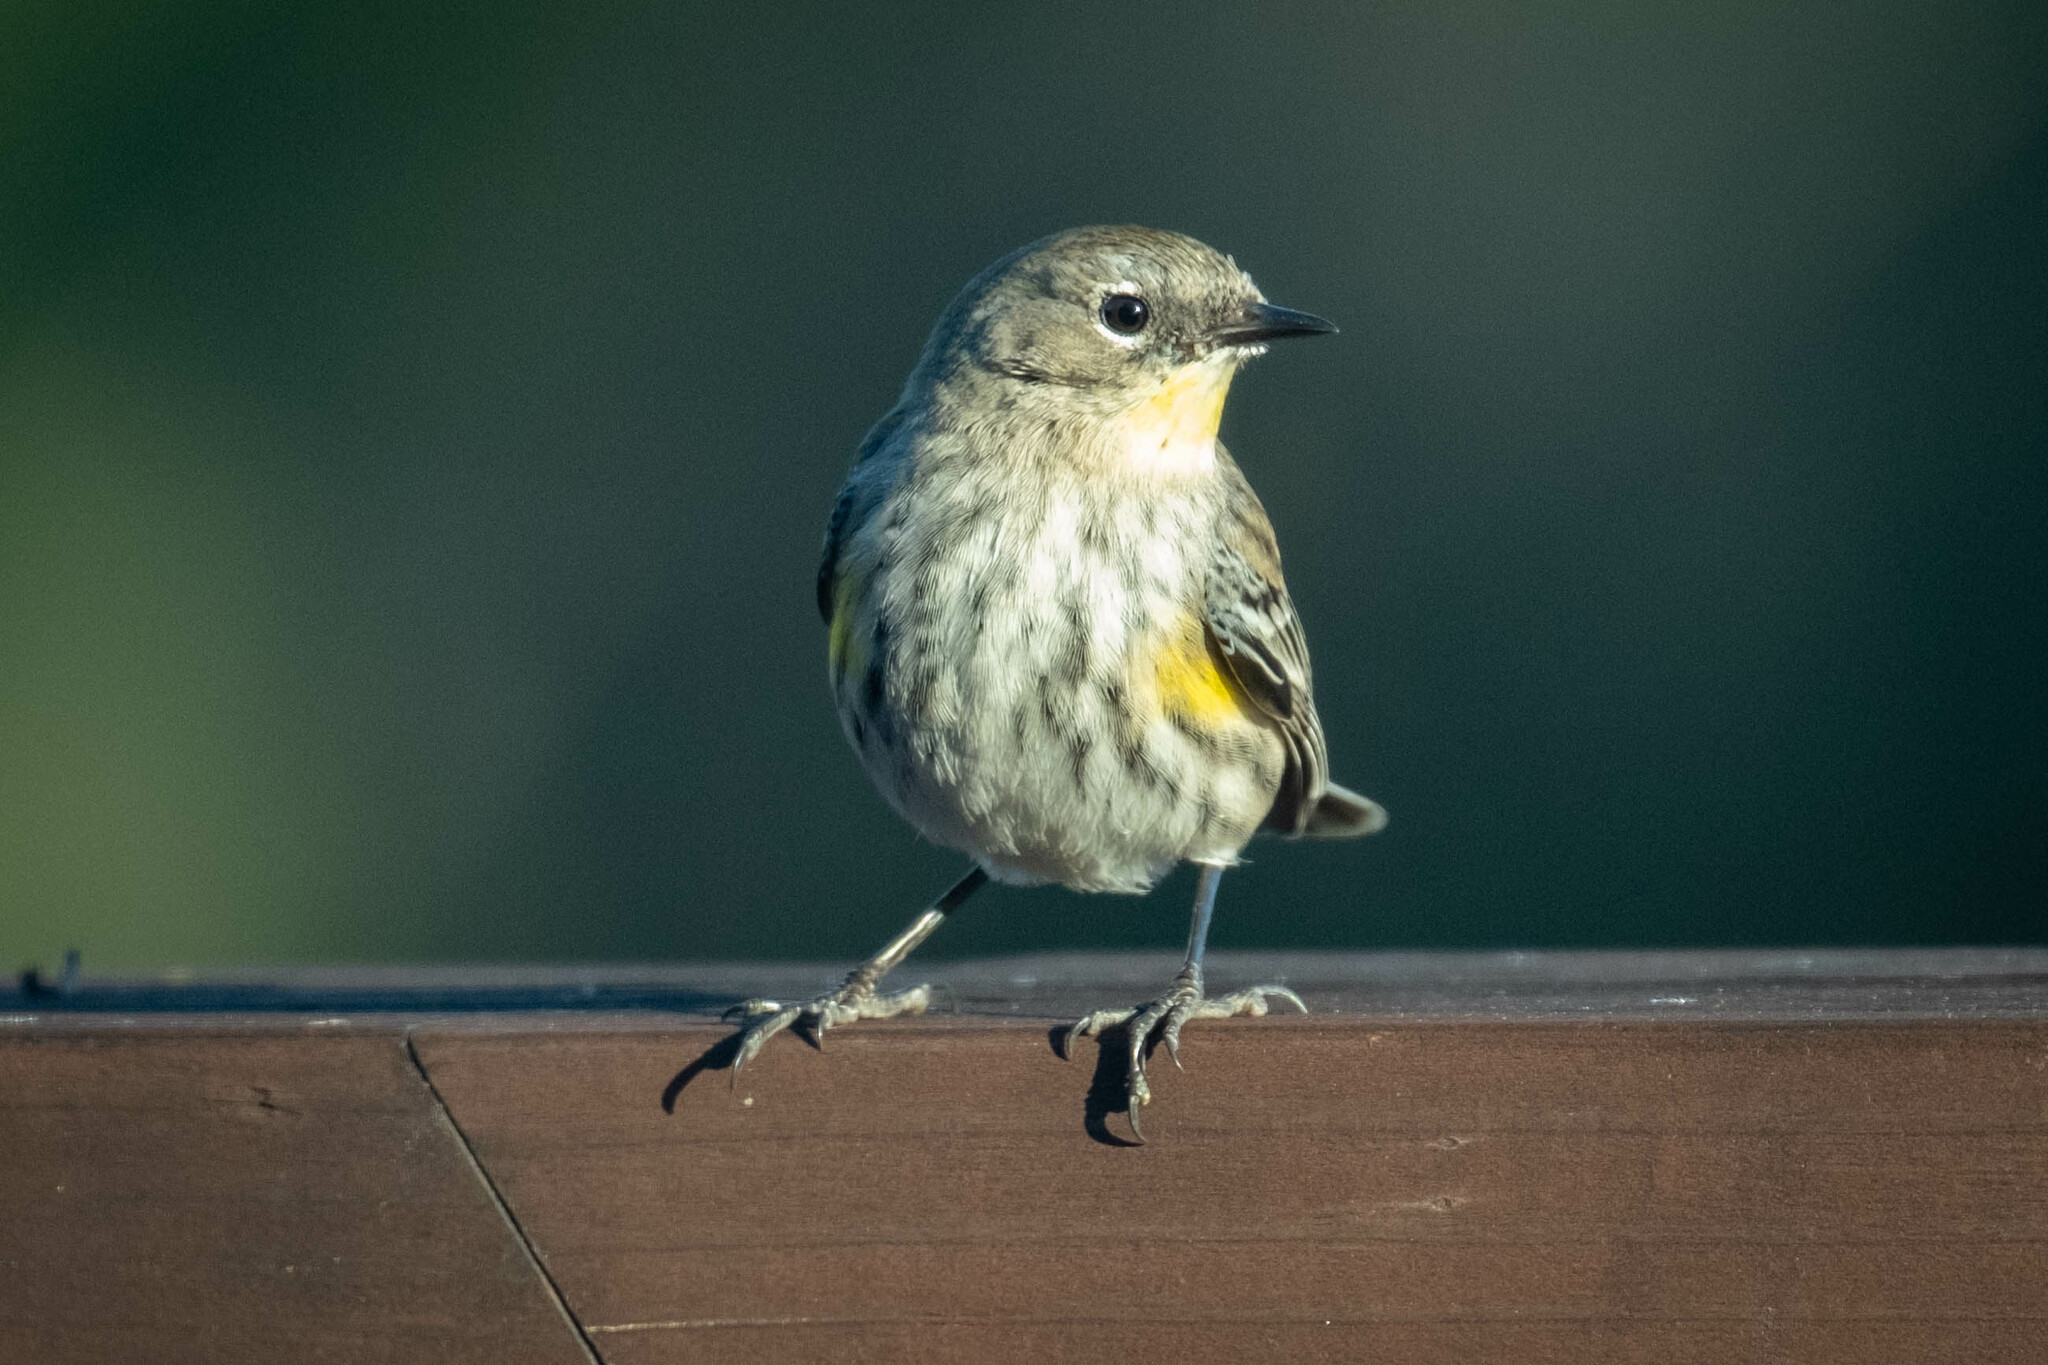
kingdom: Animalia
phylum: Chordata
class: Aves
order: Passeriformes
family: Parulidae
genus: Setophaga
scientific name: Setophaga coronata
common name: Myrtle warbler
